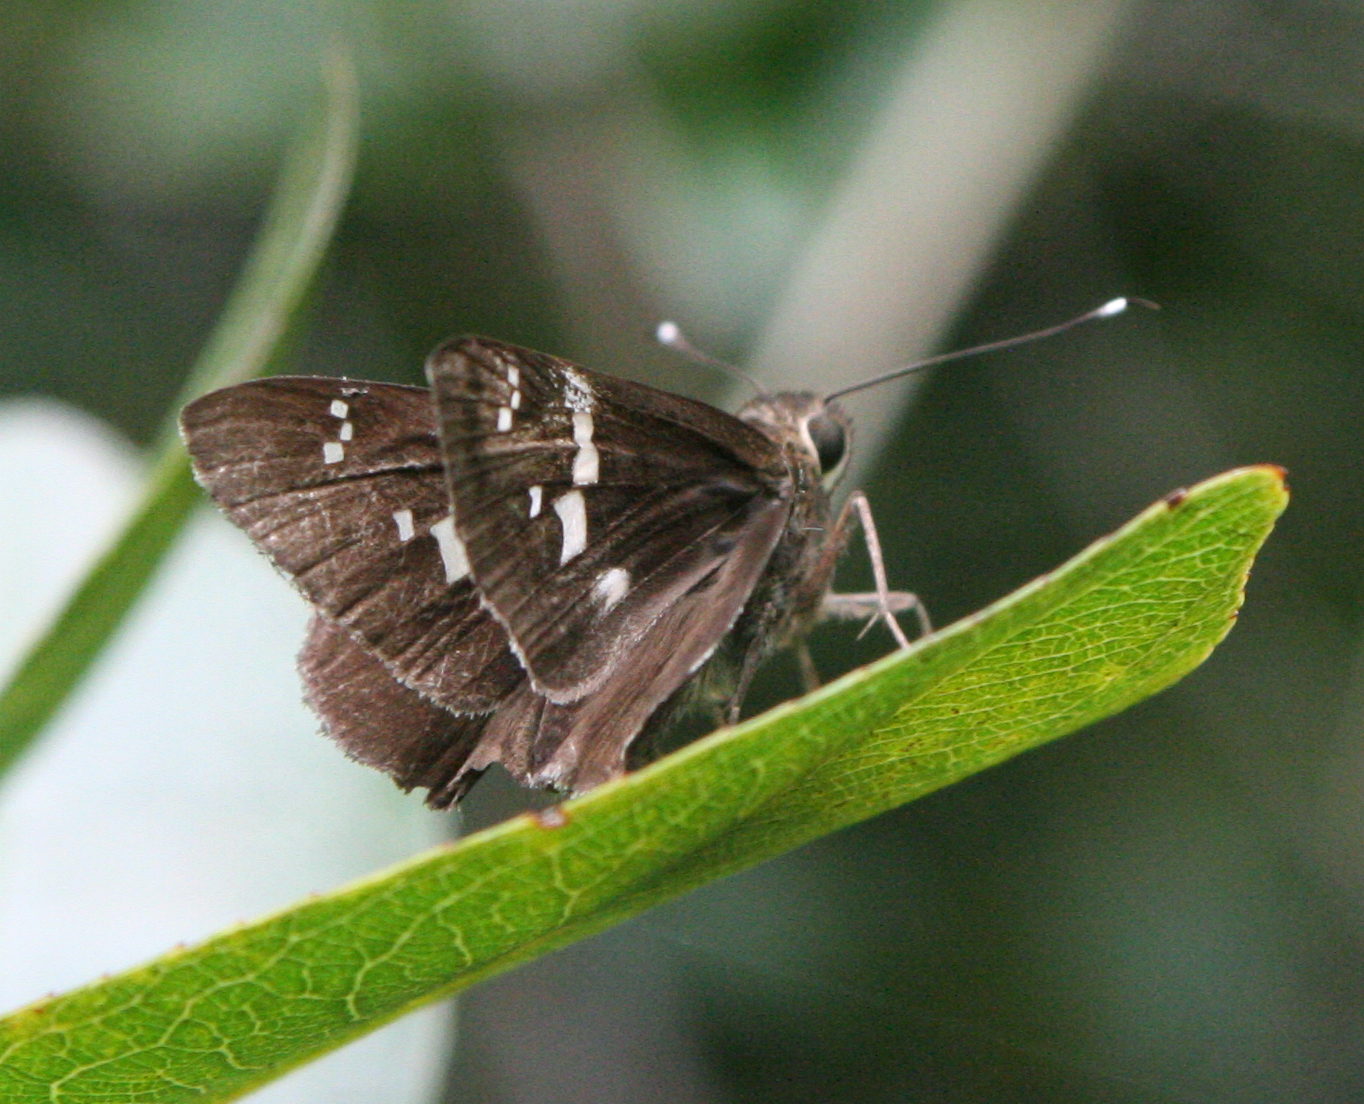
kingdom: Animalia
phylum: Arthropoda
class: Insecta
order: Lepidoptera
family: Hesperiidae
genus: Hyarotis
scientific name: Hyarotis adrastus
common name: Tree flitter
